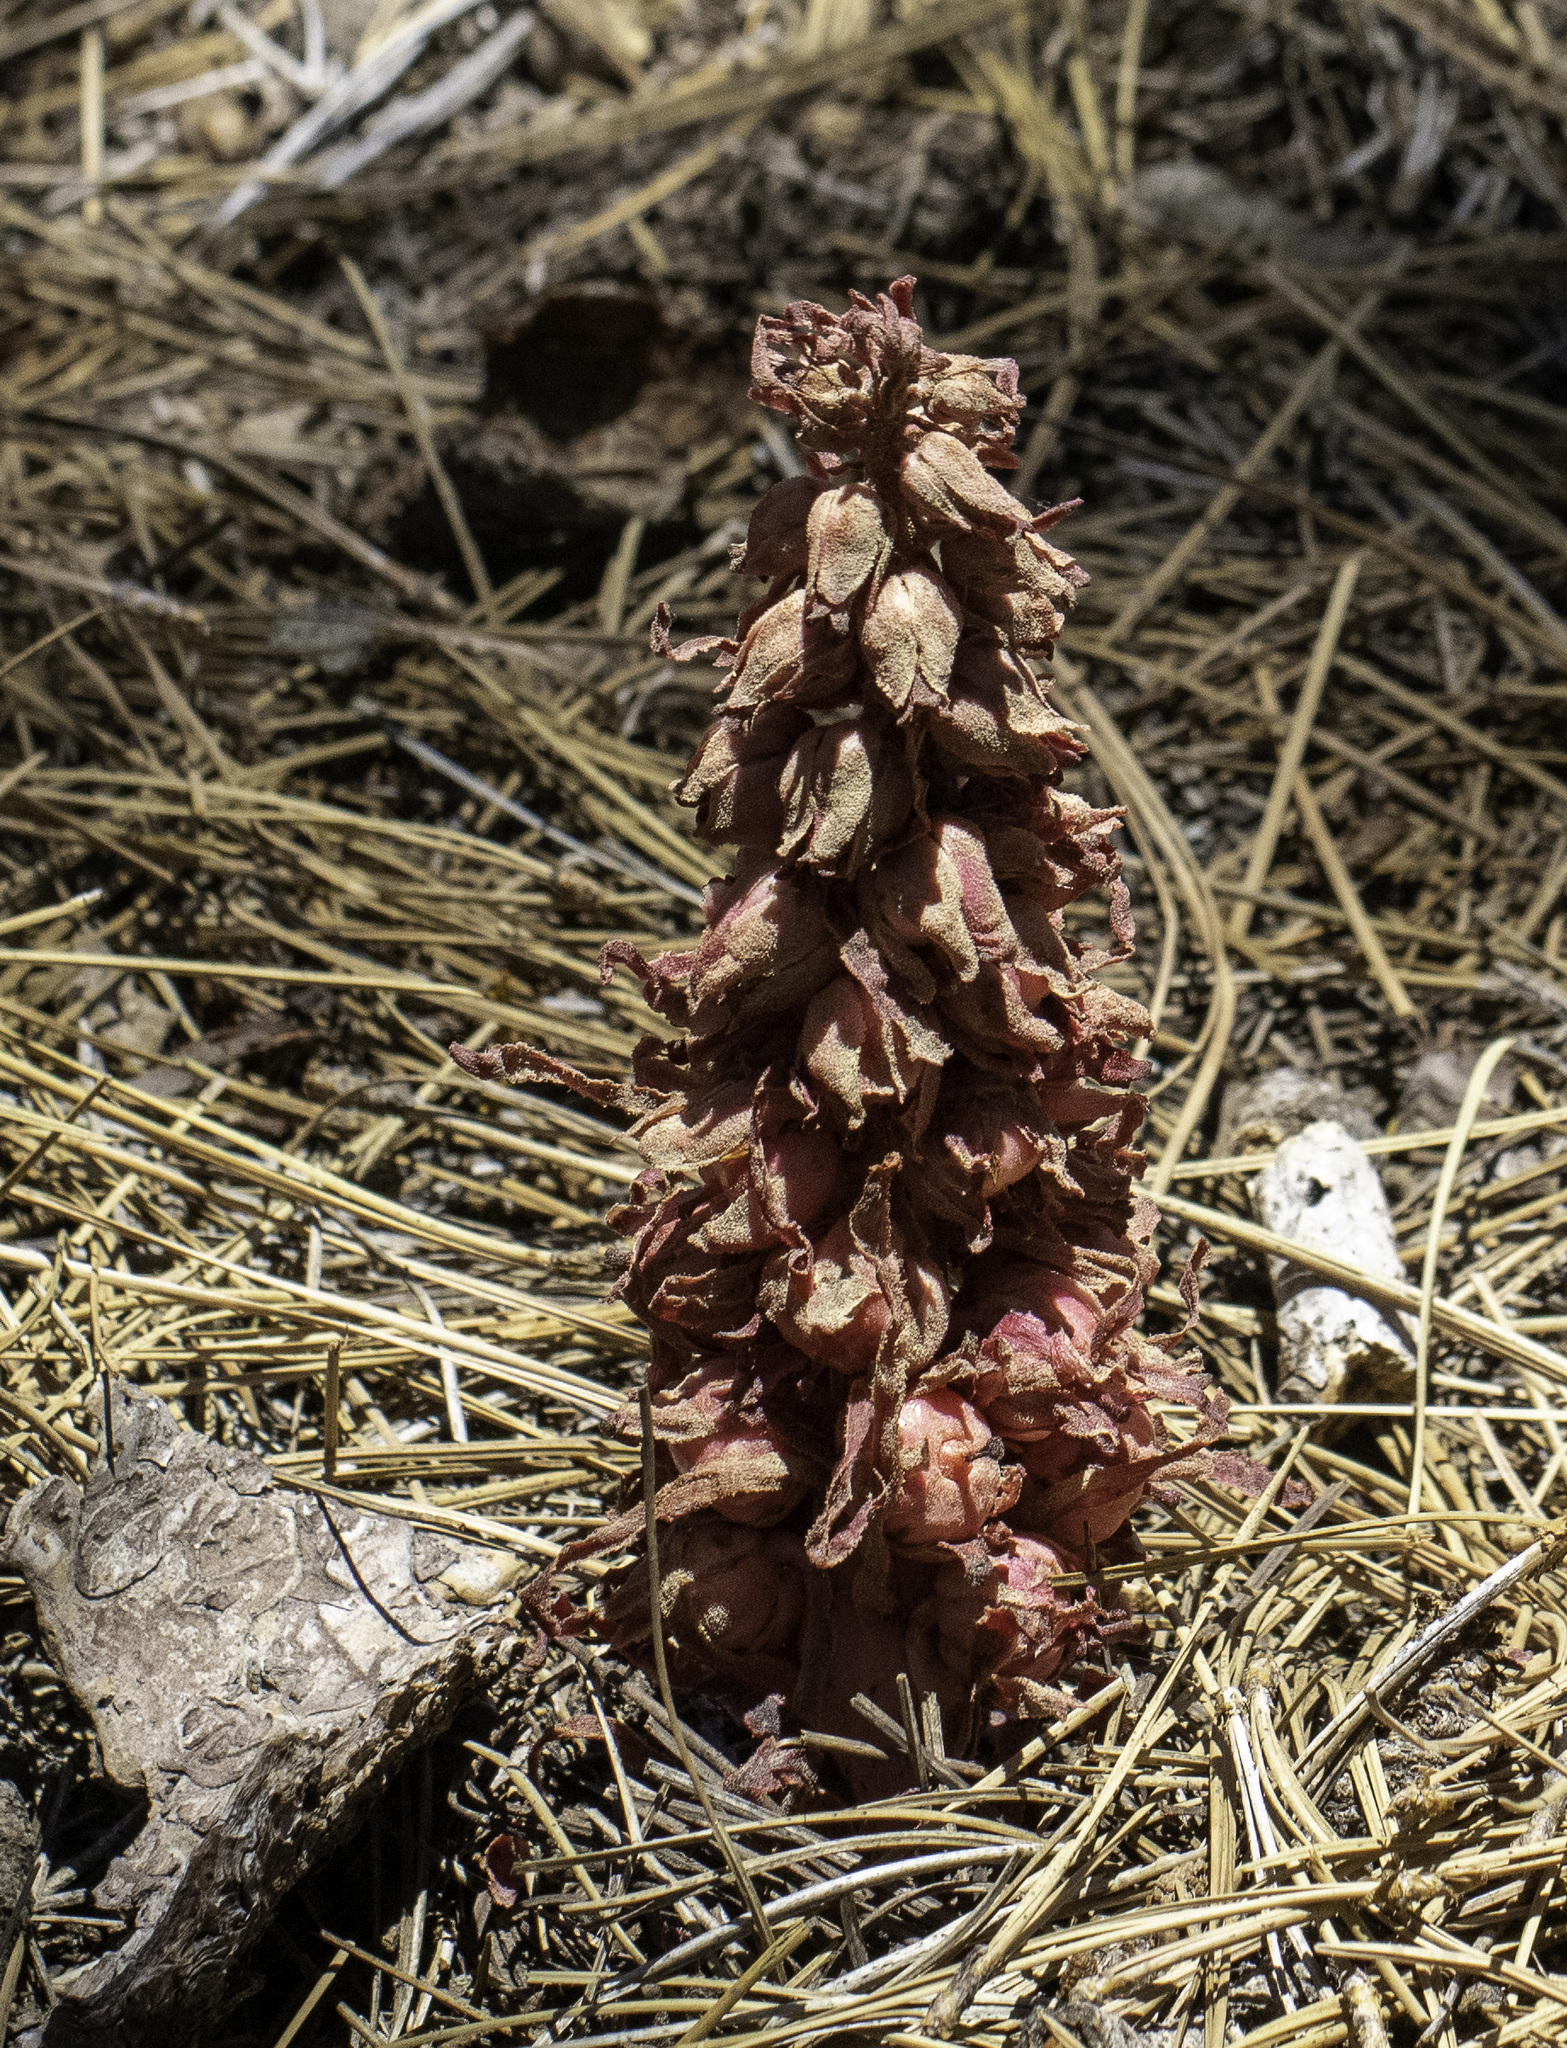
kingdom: Plantae
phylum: Tracheophyta
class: Magnoliopsida
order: Ericales
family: Ericaceae
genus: Sarcodes
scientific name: Sarcodes sanguinea
